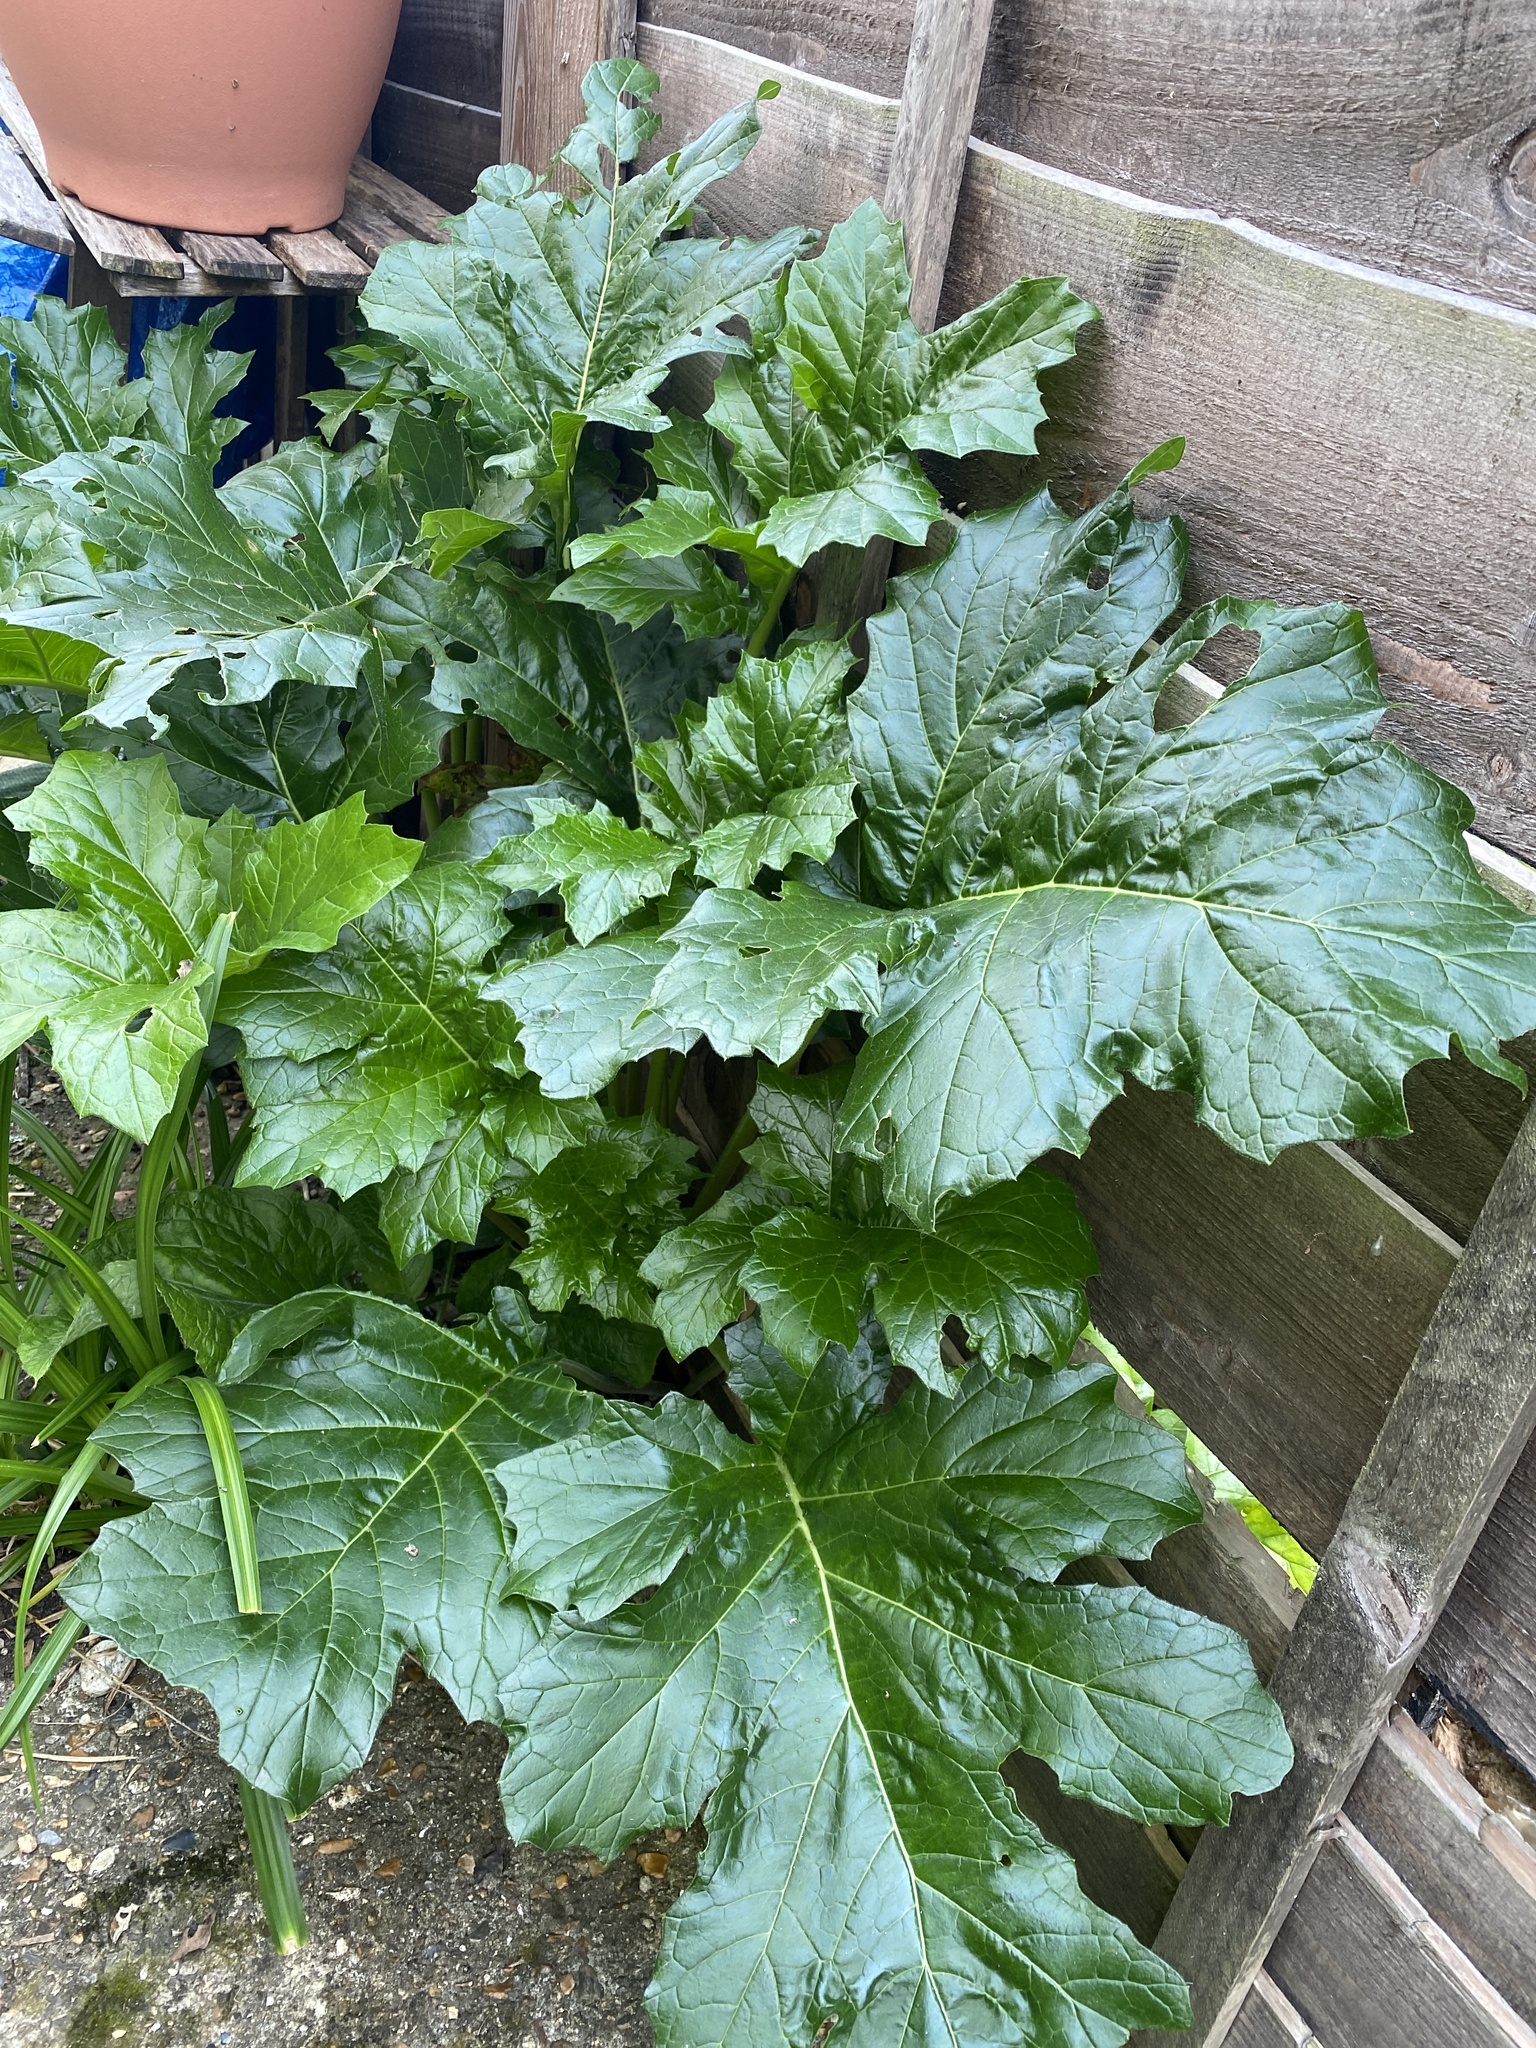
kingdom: Plantae
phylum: Tracheophyta
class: Magnoliopsida
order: Lamiales
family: Acanthaceae
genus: Acanthus
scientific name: Acanthus mollis
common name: Bear's-breech
